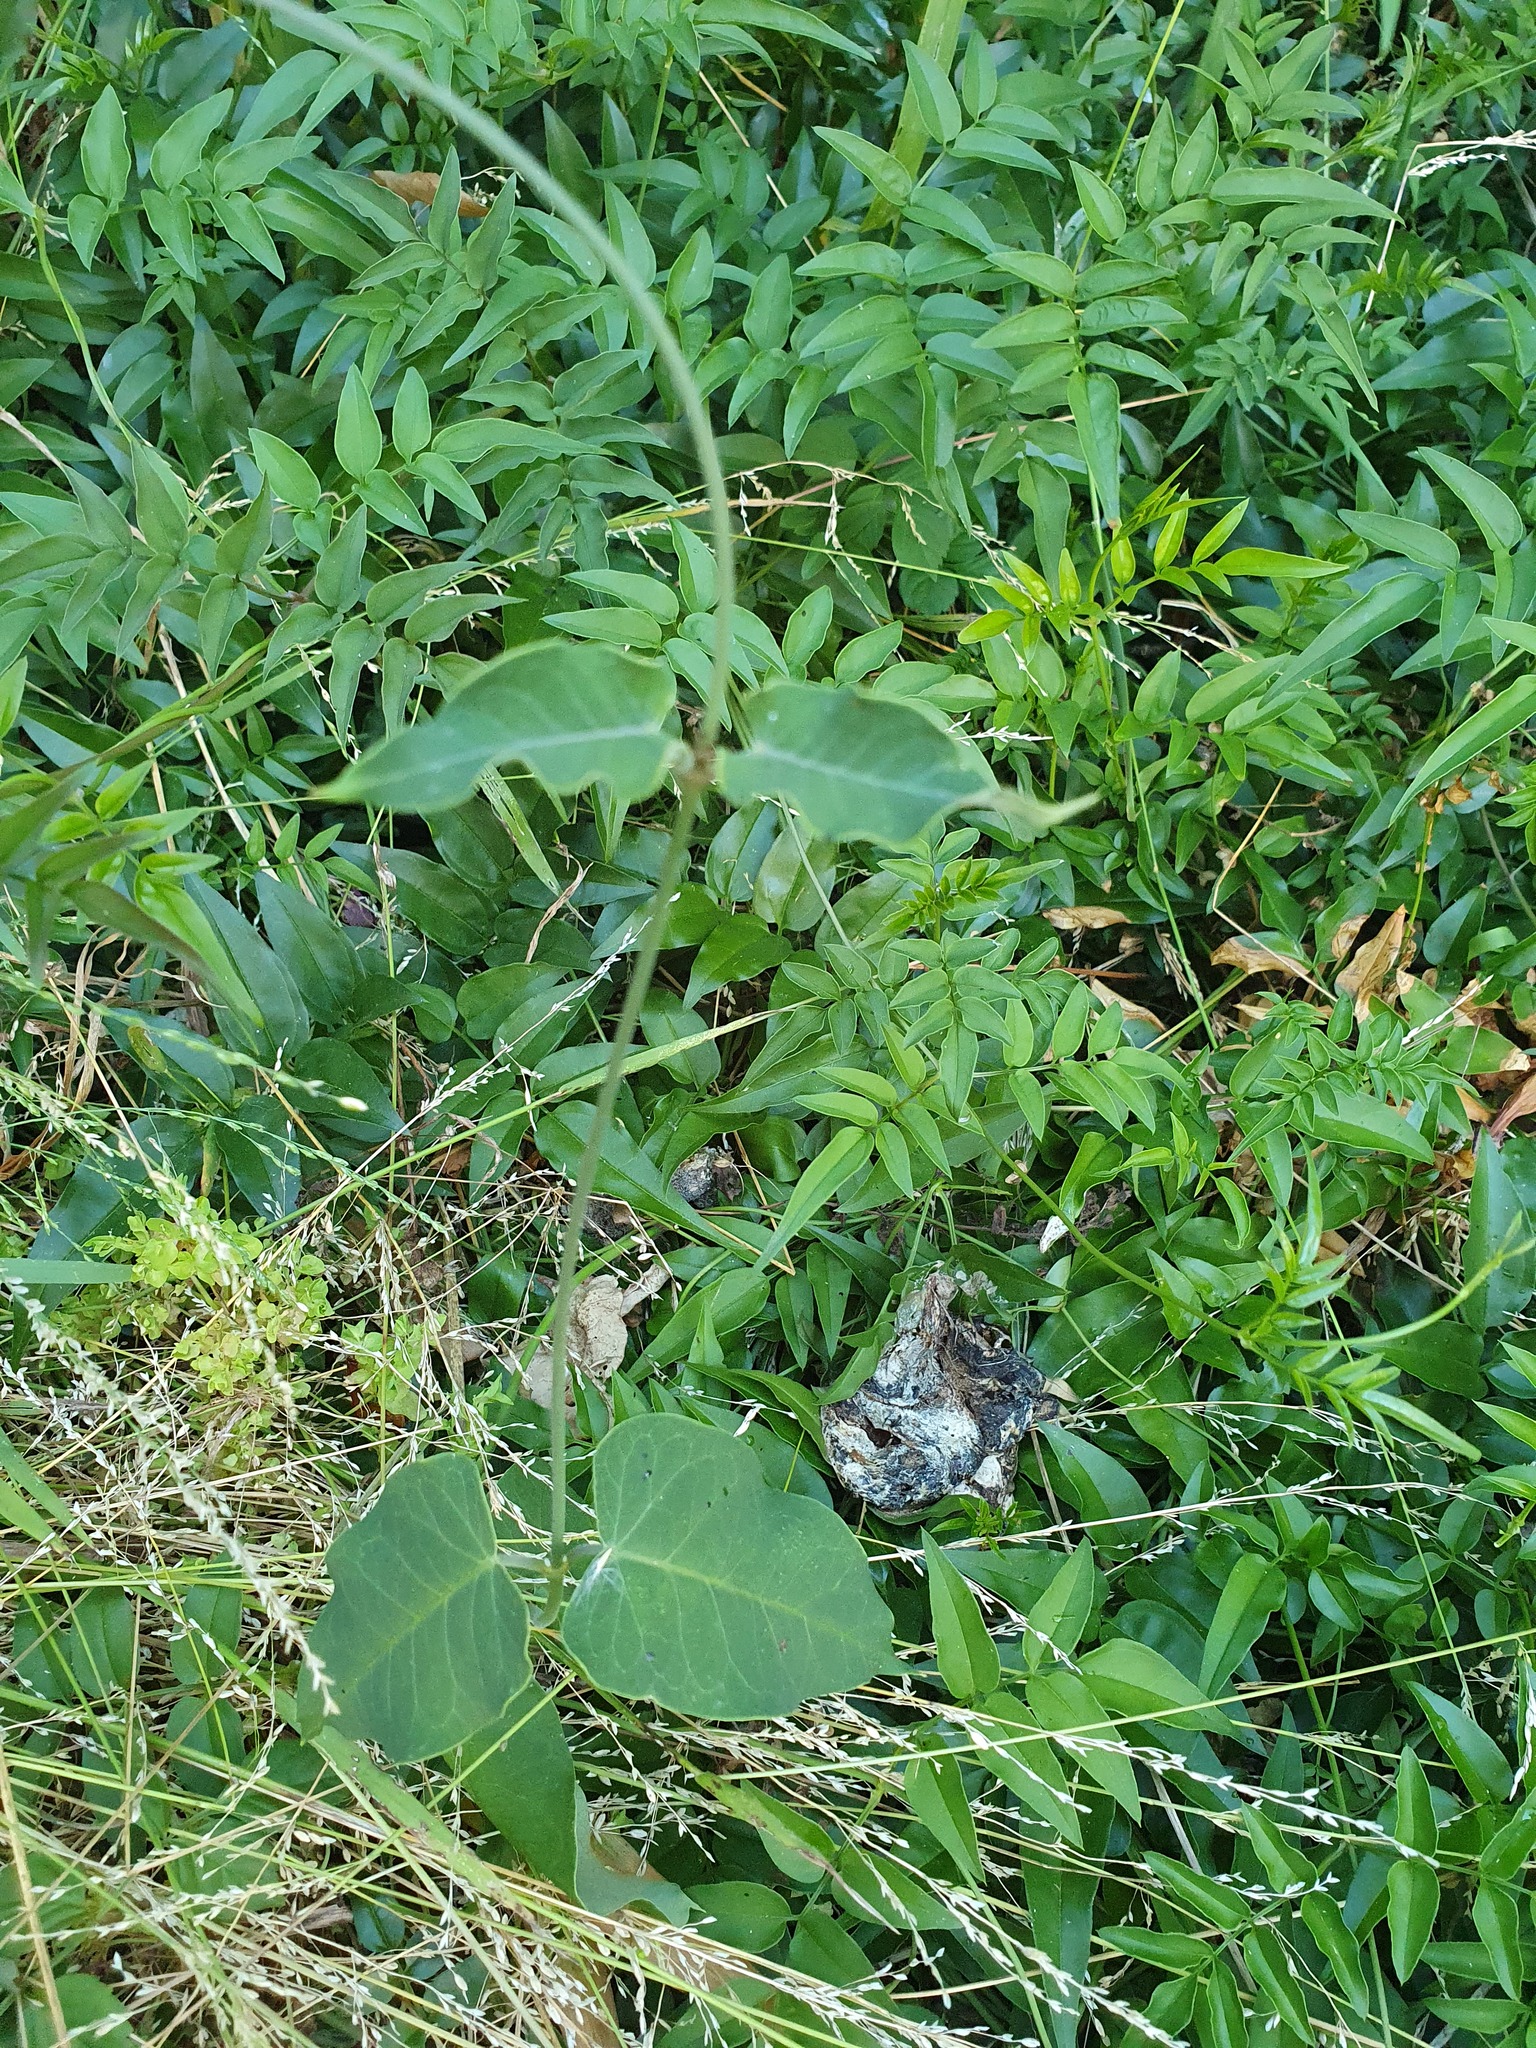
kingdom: Plantae
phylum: Tracheophyta
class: Magnoliopsida
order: Gentianales
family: Apocynaceae
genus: Araujia
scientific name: Araujia sericifera
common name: White bladderflower
